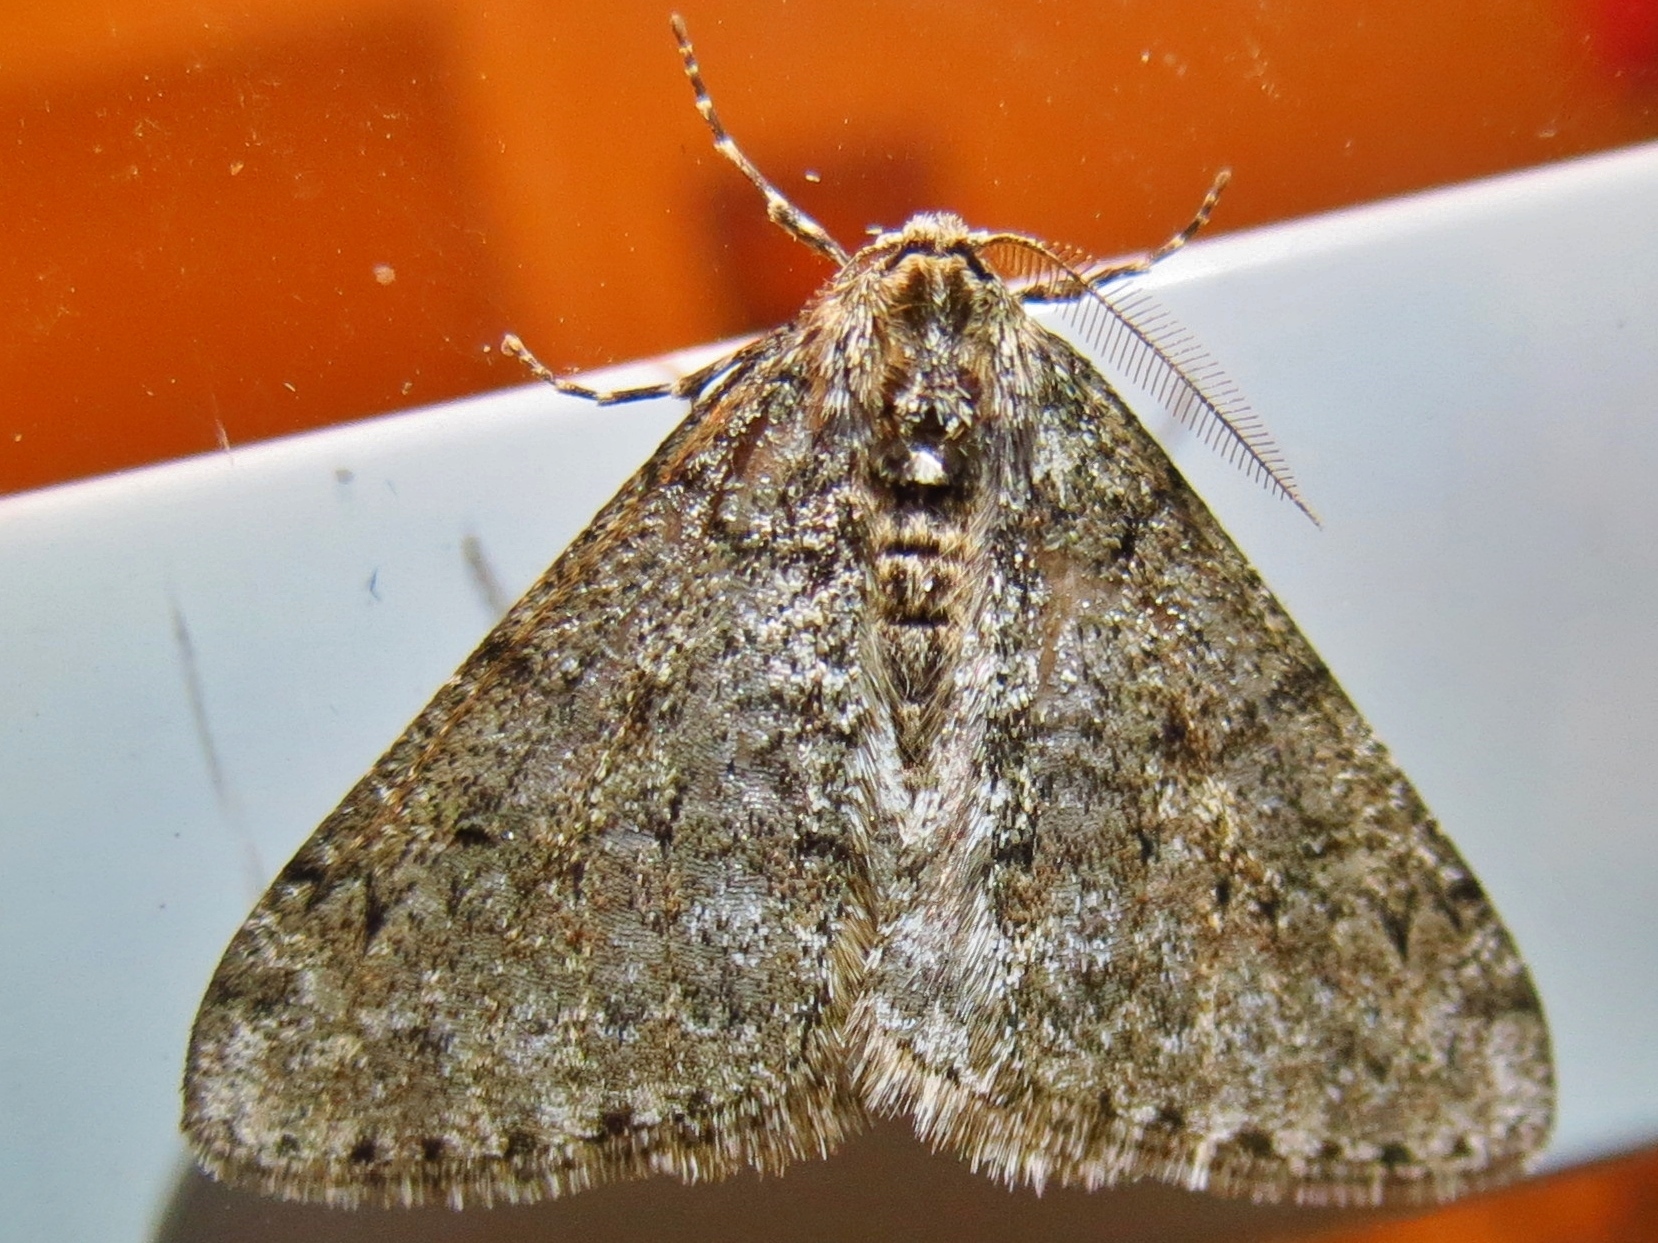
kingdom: Animalia
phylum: Arthropoda
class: Insecta
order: Lepidoptera
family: Geometridae
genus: Phigalia
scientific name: Phigalia denticulata
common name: Toothed phigalia
